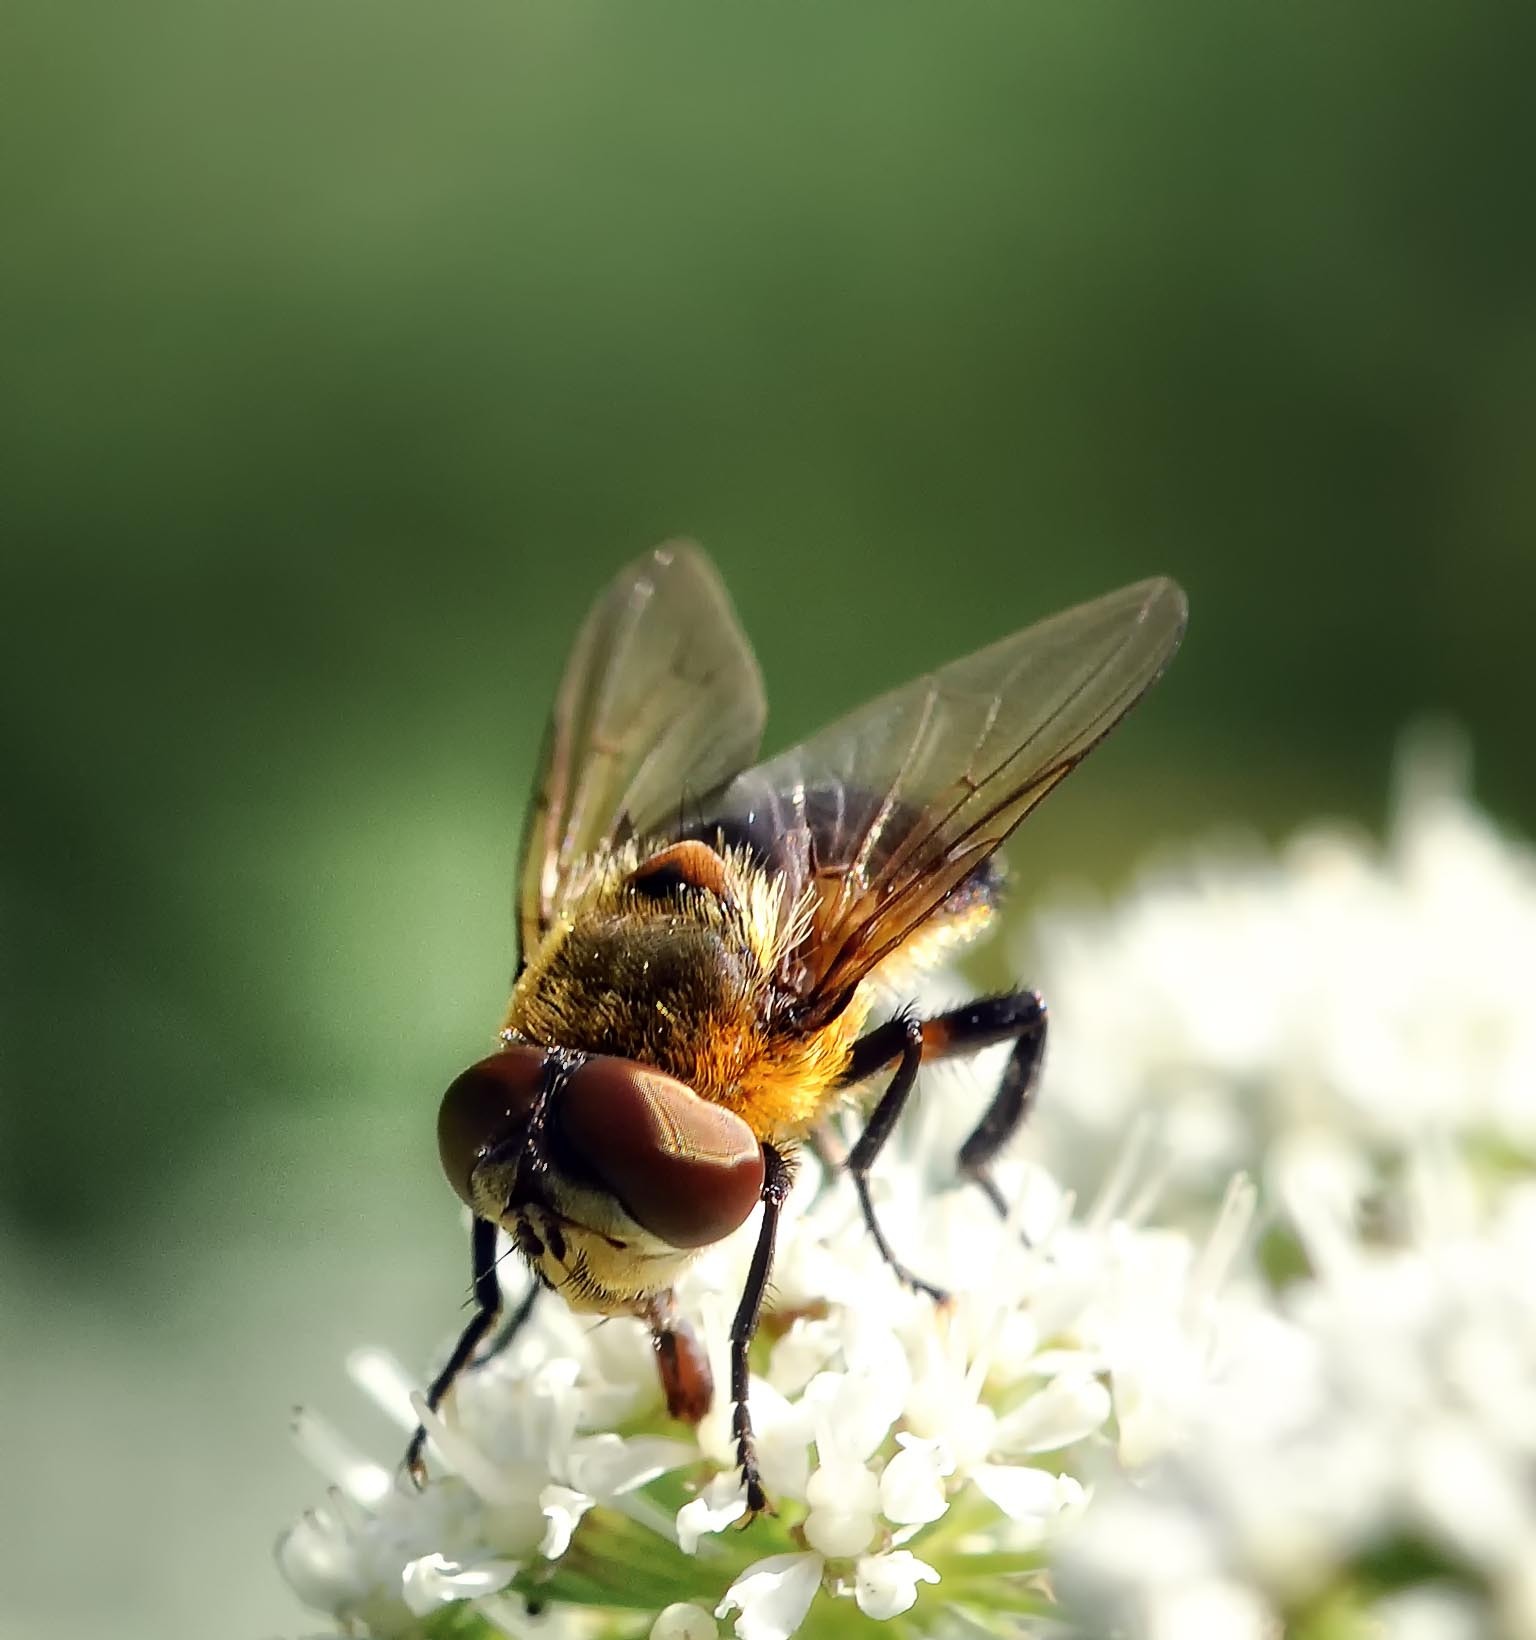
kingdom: Animalia
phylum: Arthropoda
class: Insecta
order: Diptera
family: Tachinidae
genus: Phasia
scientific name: Phasia hemiptera
